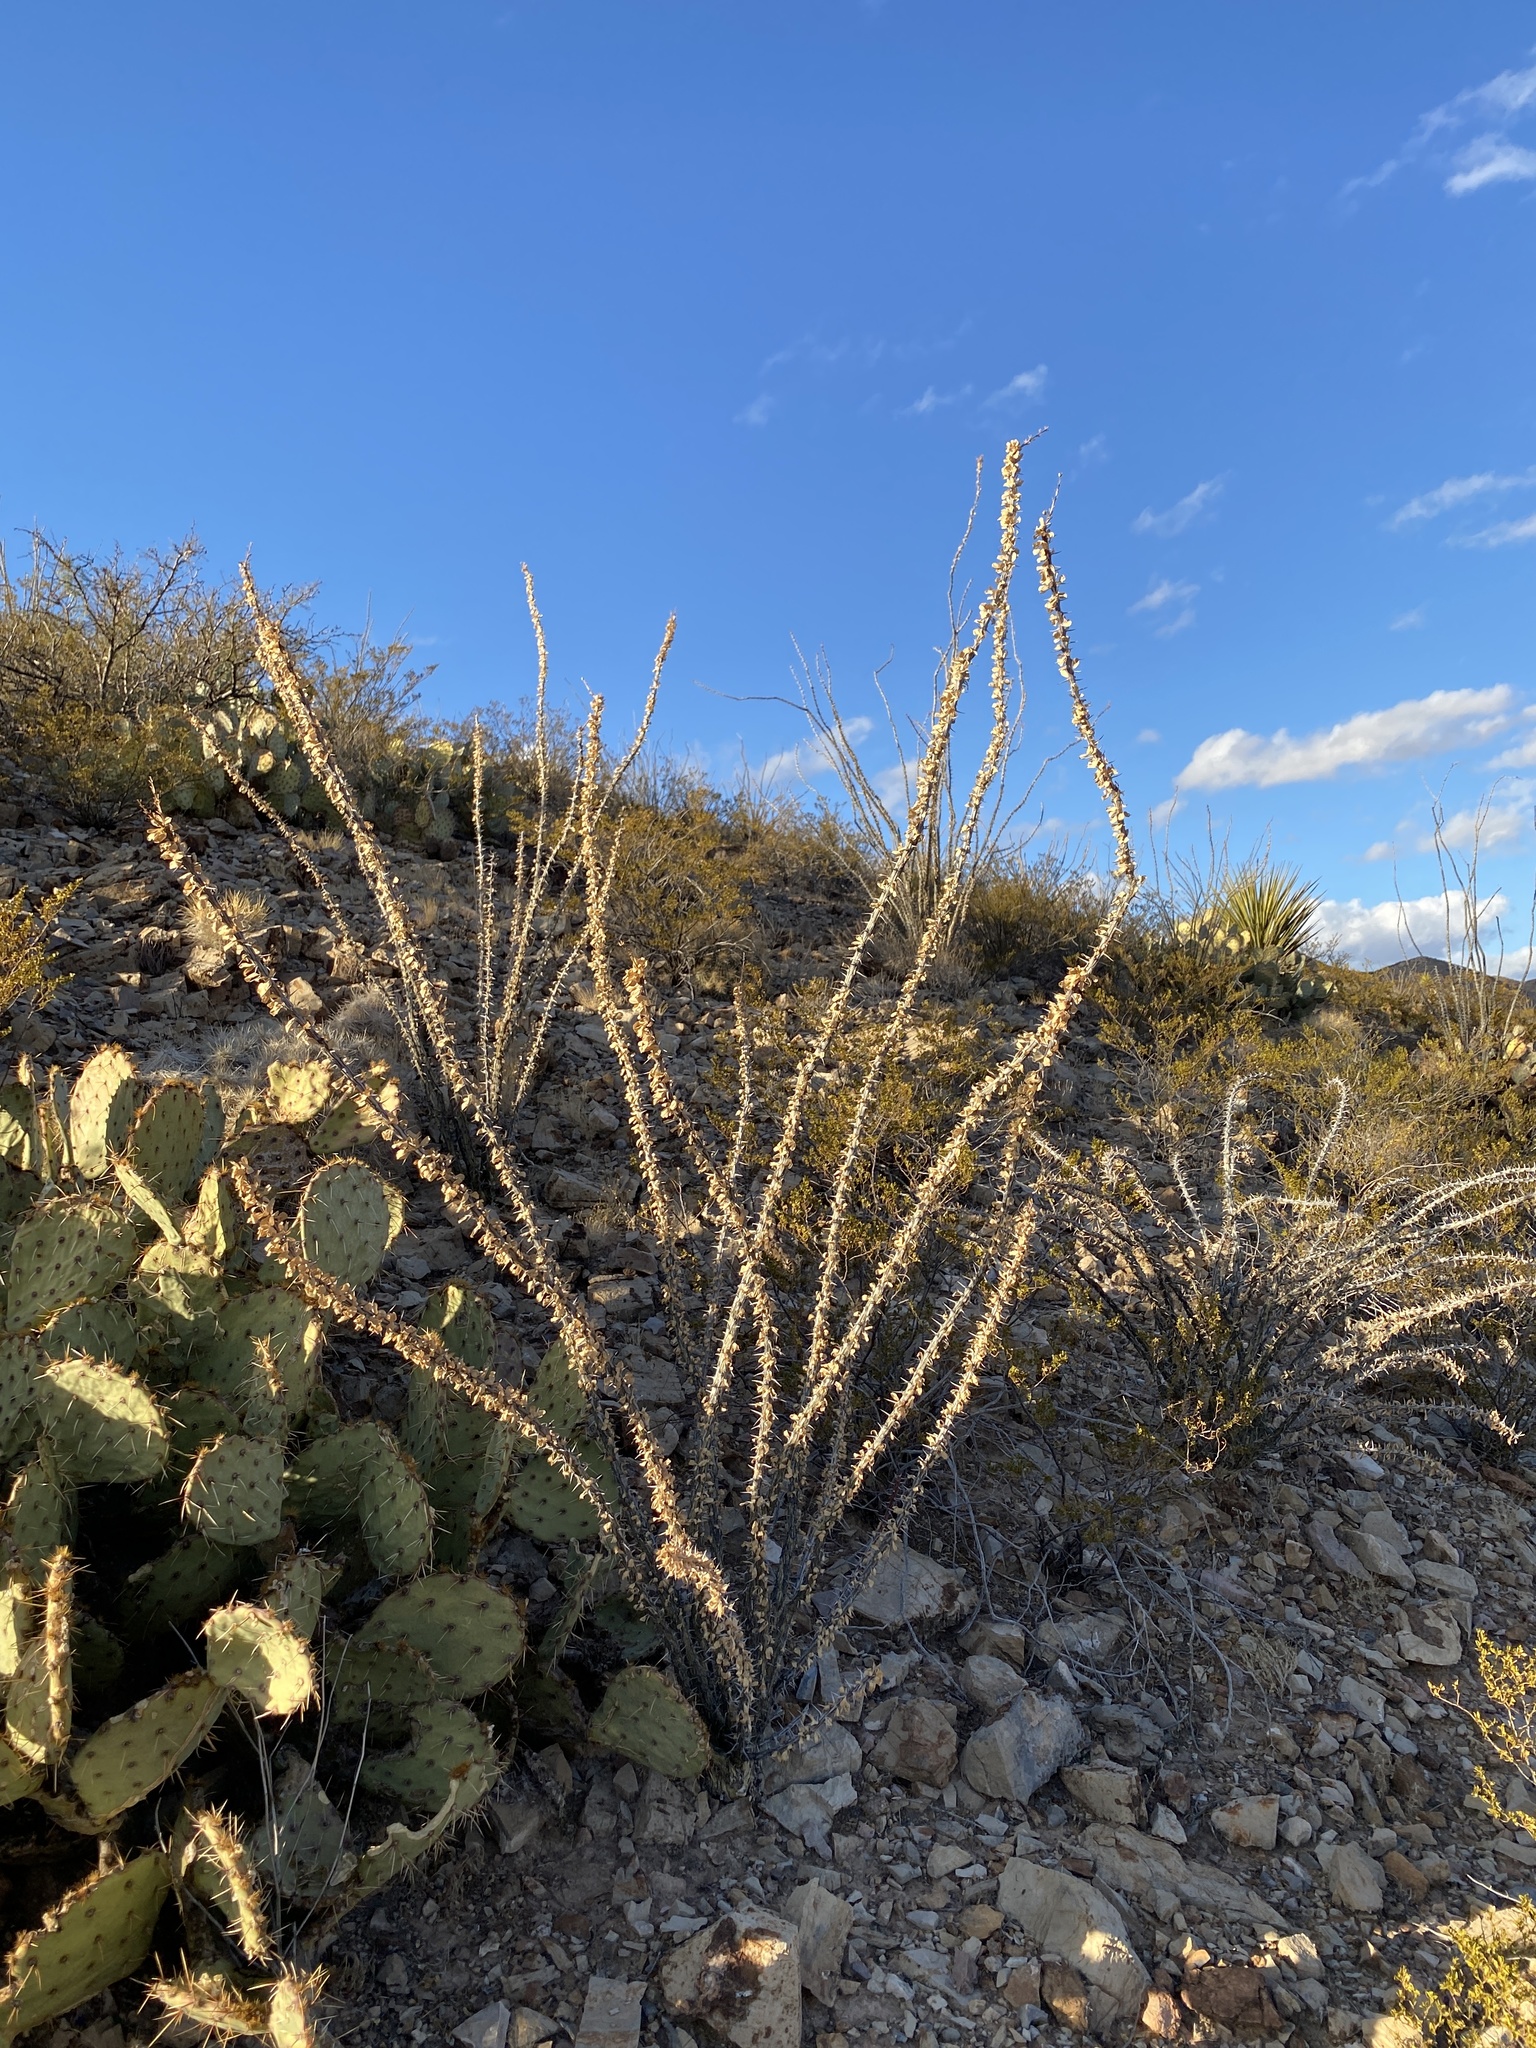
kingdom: Plantae
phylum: Tracheophyta
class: Magnoliopsida
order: Ericales
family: Fouquieriaceae
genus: Fouquieria
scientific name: Fouquieria splendens
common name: Vine-cactus
